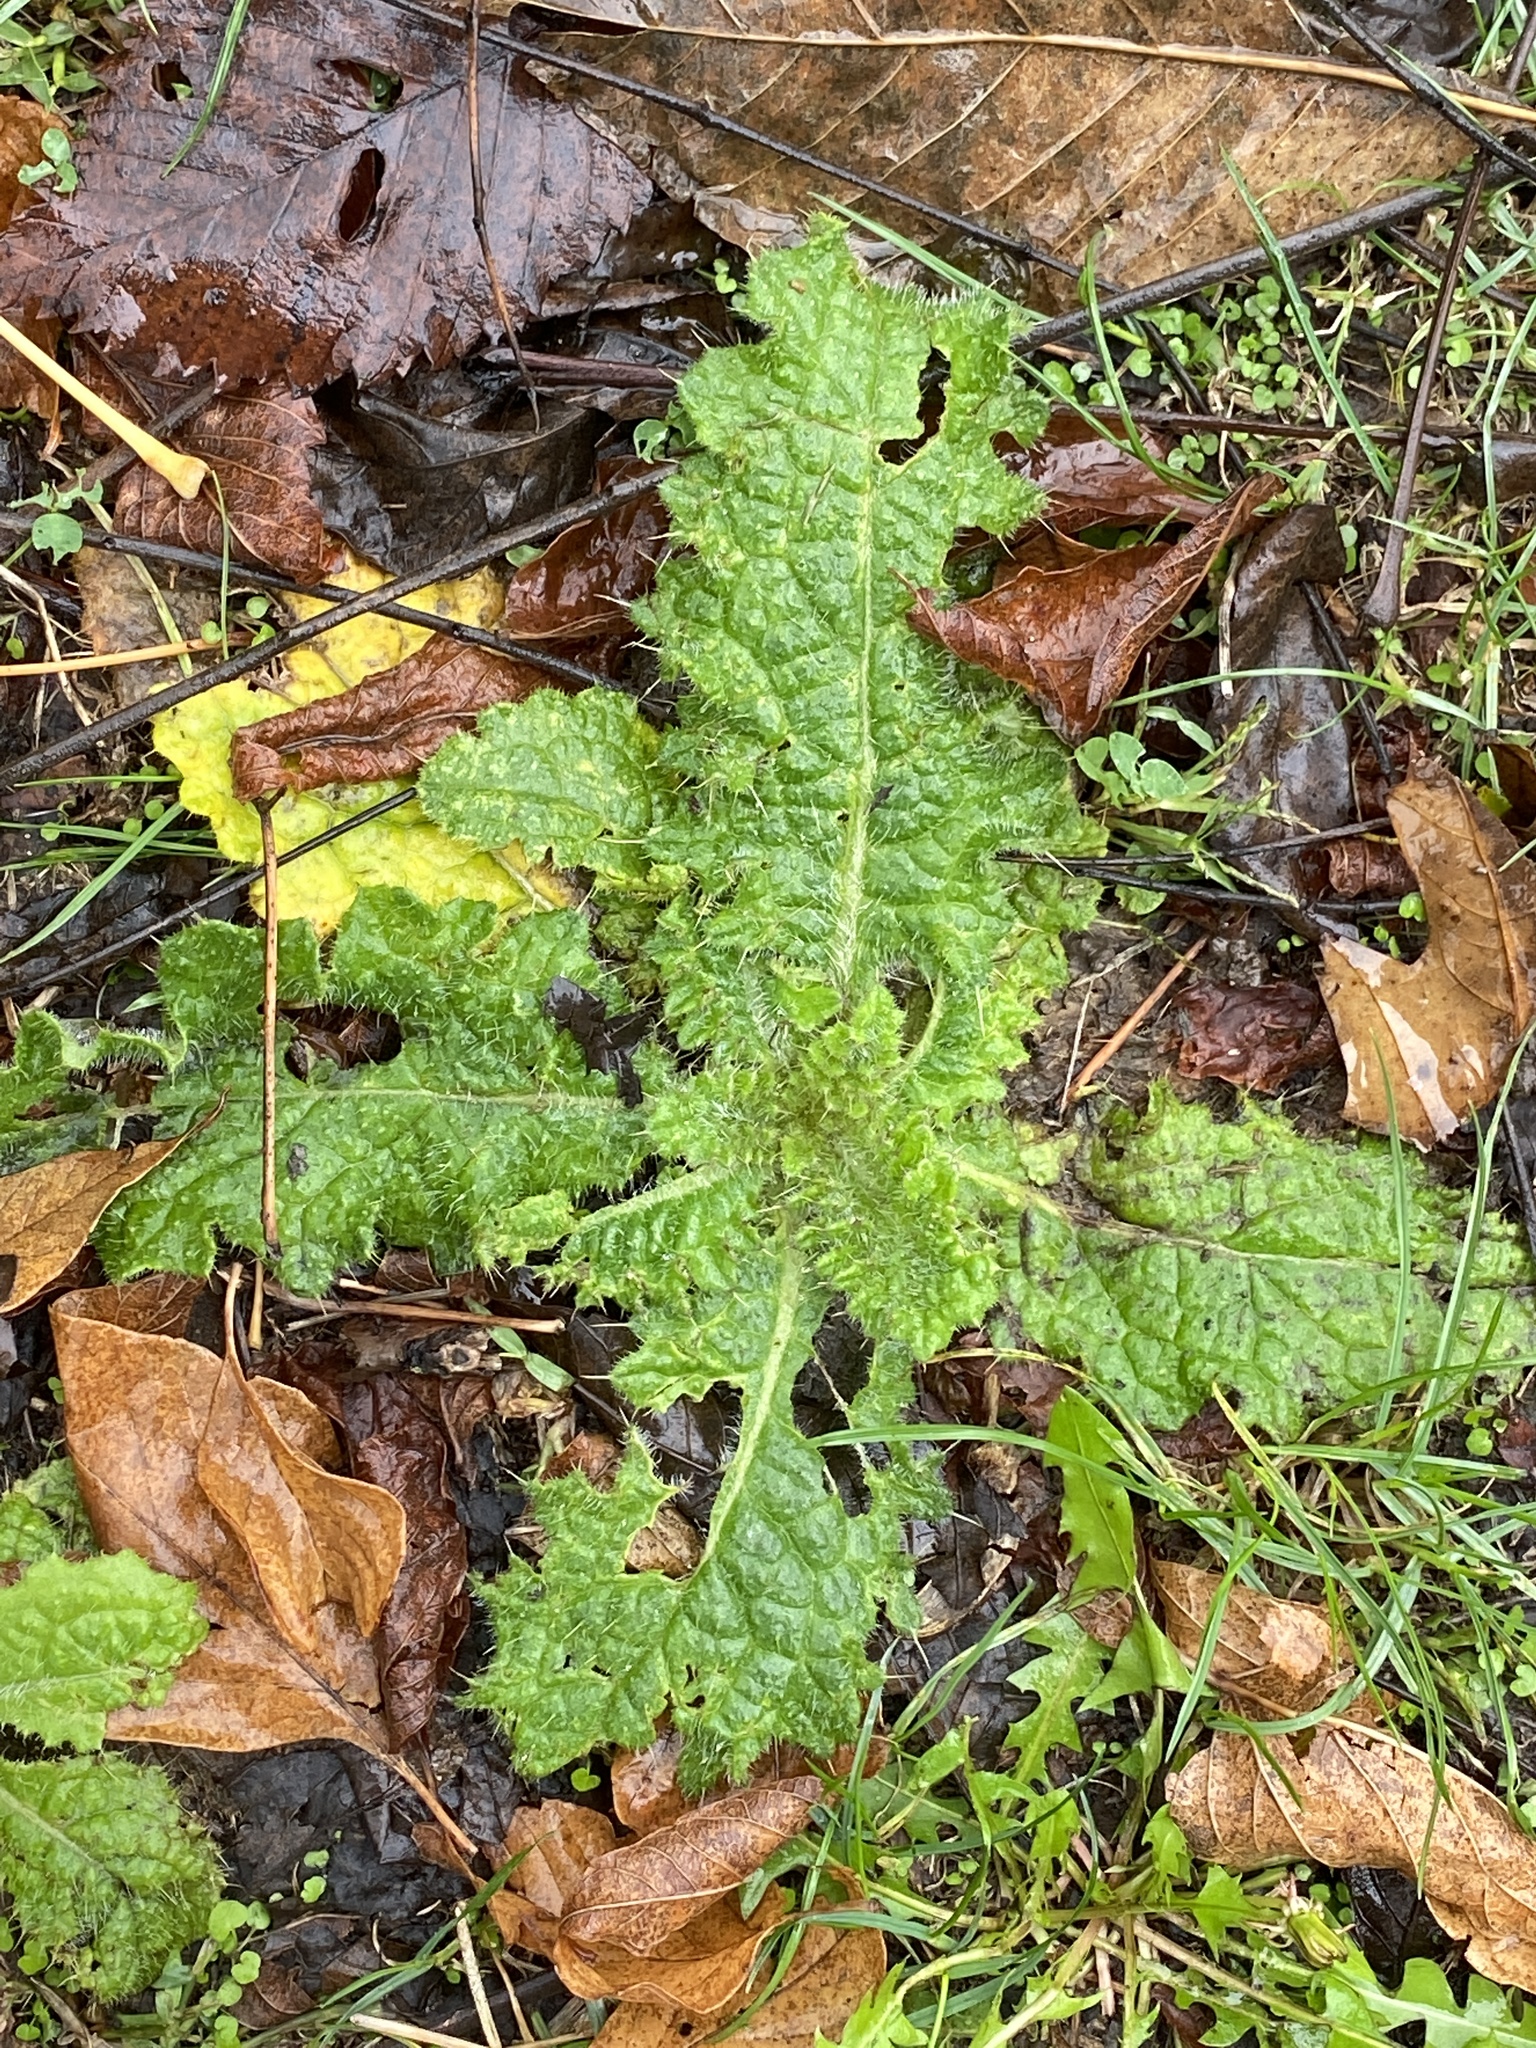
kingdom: Plantae
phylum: Tracheophyta
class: Magnoliopsida
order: Asterales
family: Asteraceae
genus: Cirsium
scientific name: Cirsium vulgare
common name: Bull thistle
